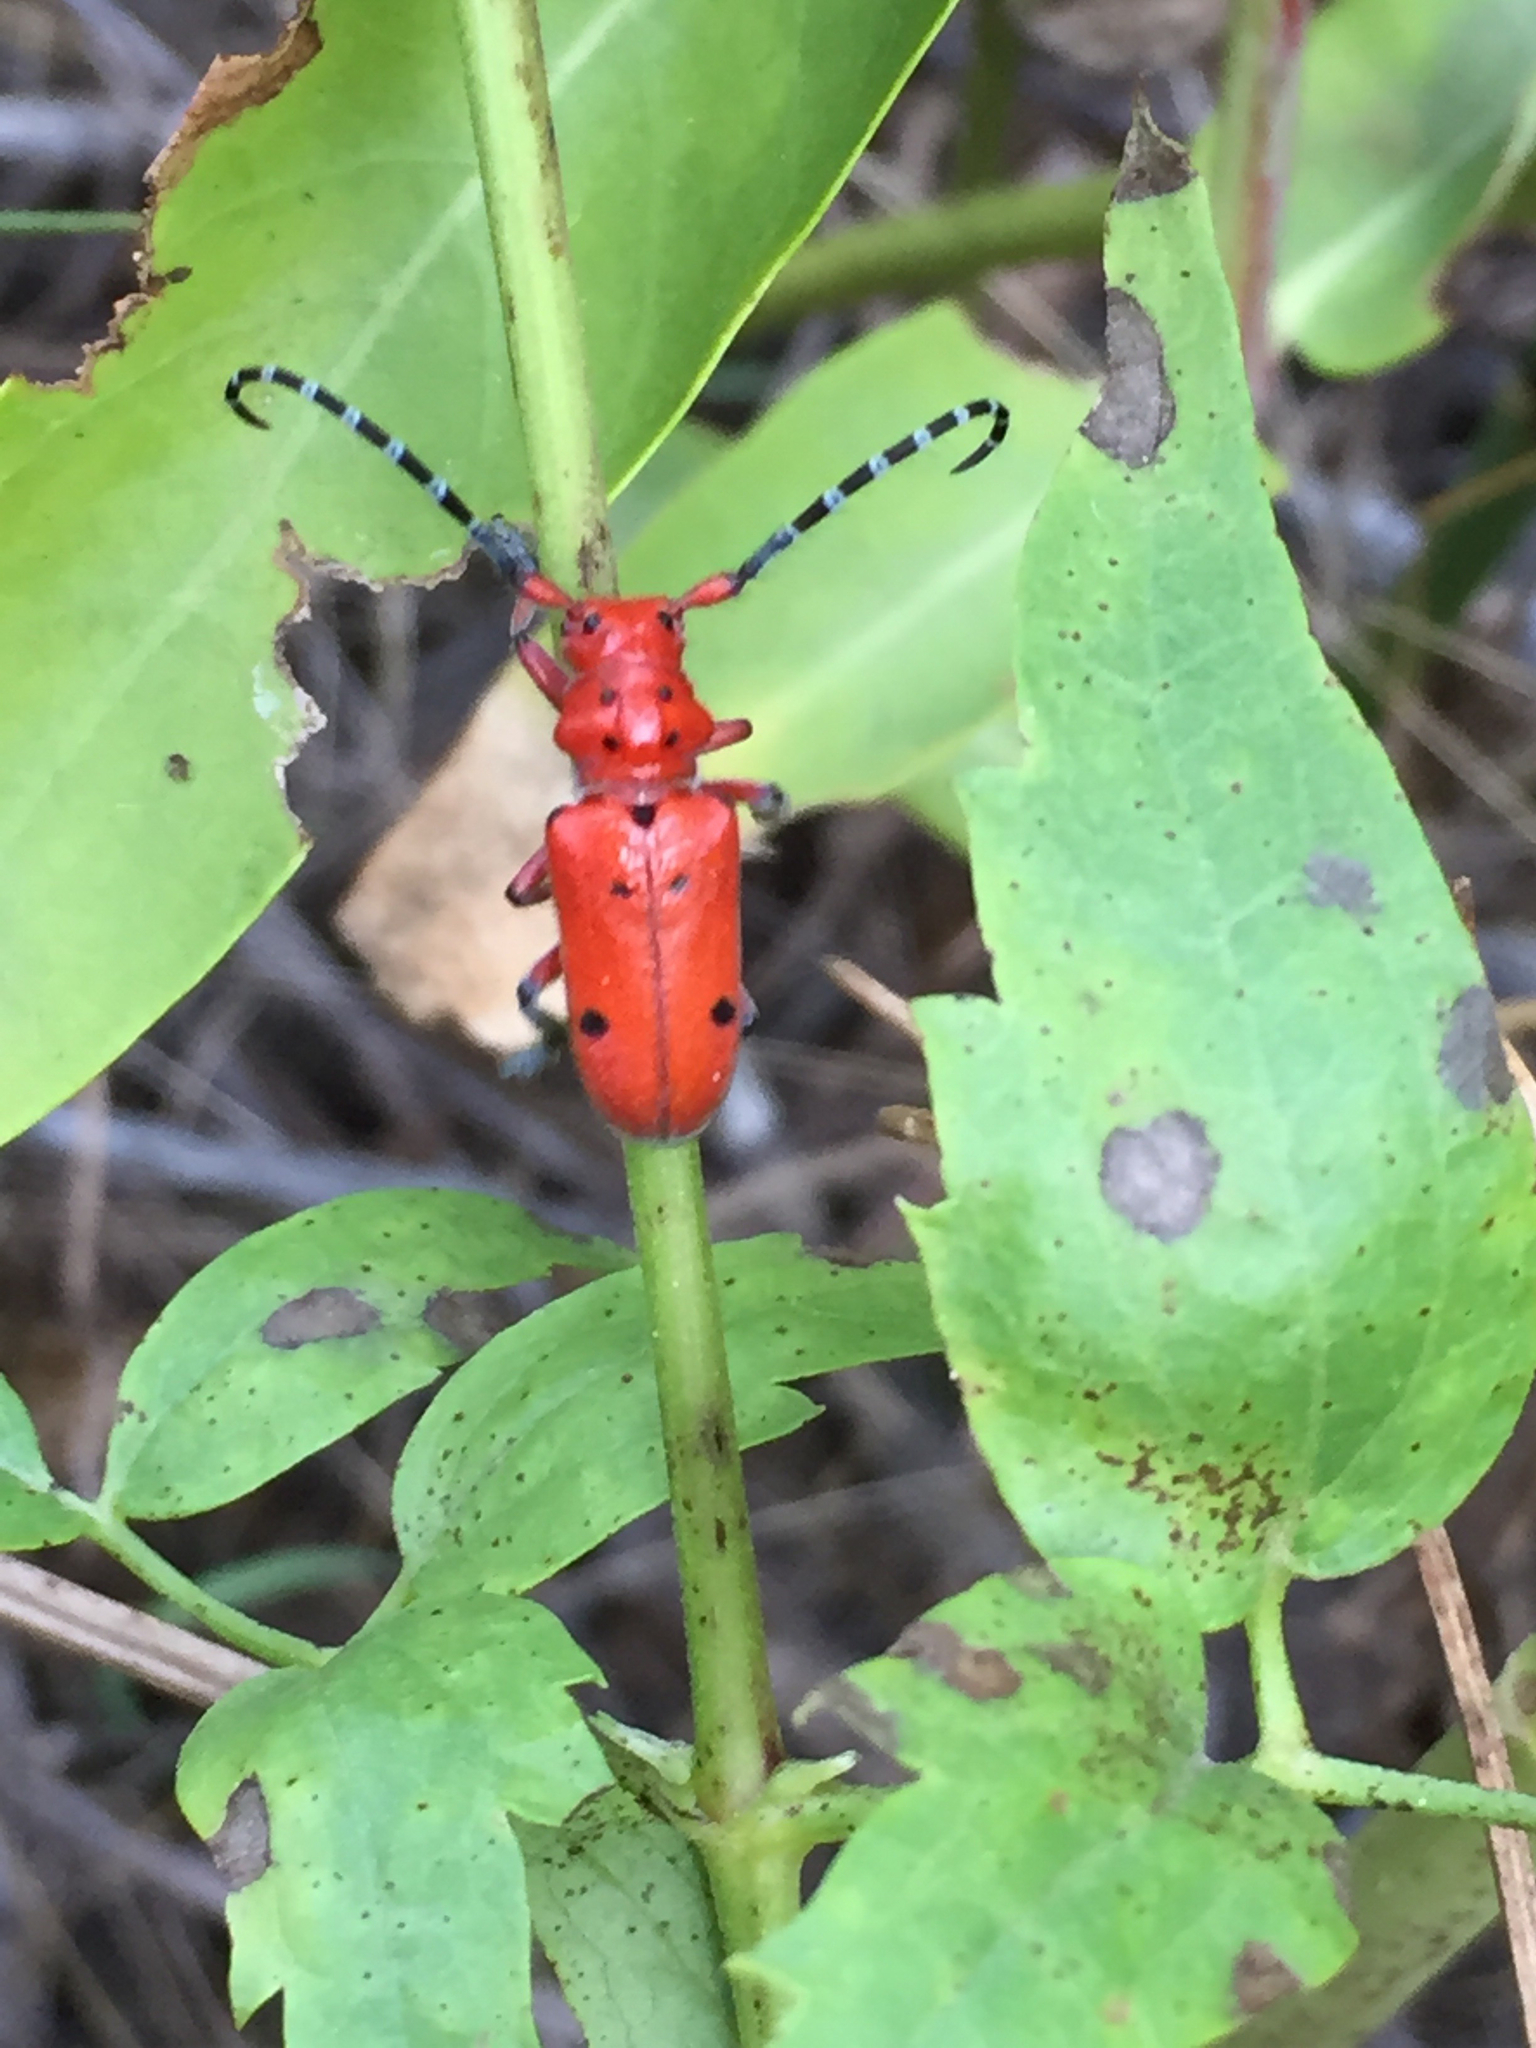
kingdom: Animalia
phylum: Arthropoda
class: Insecta
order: Coleoptera
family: Cerambycidae
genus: Tetraopes
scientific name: Tetraopes femoratus
